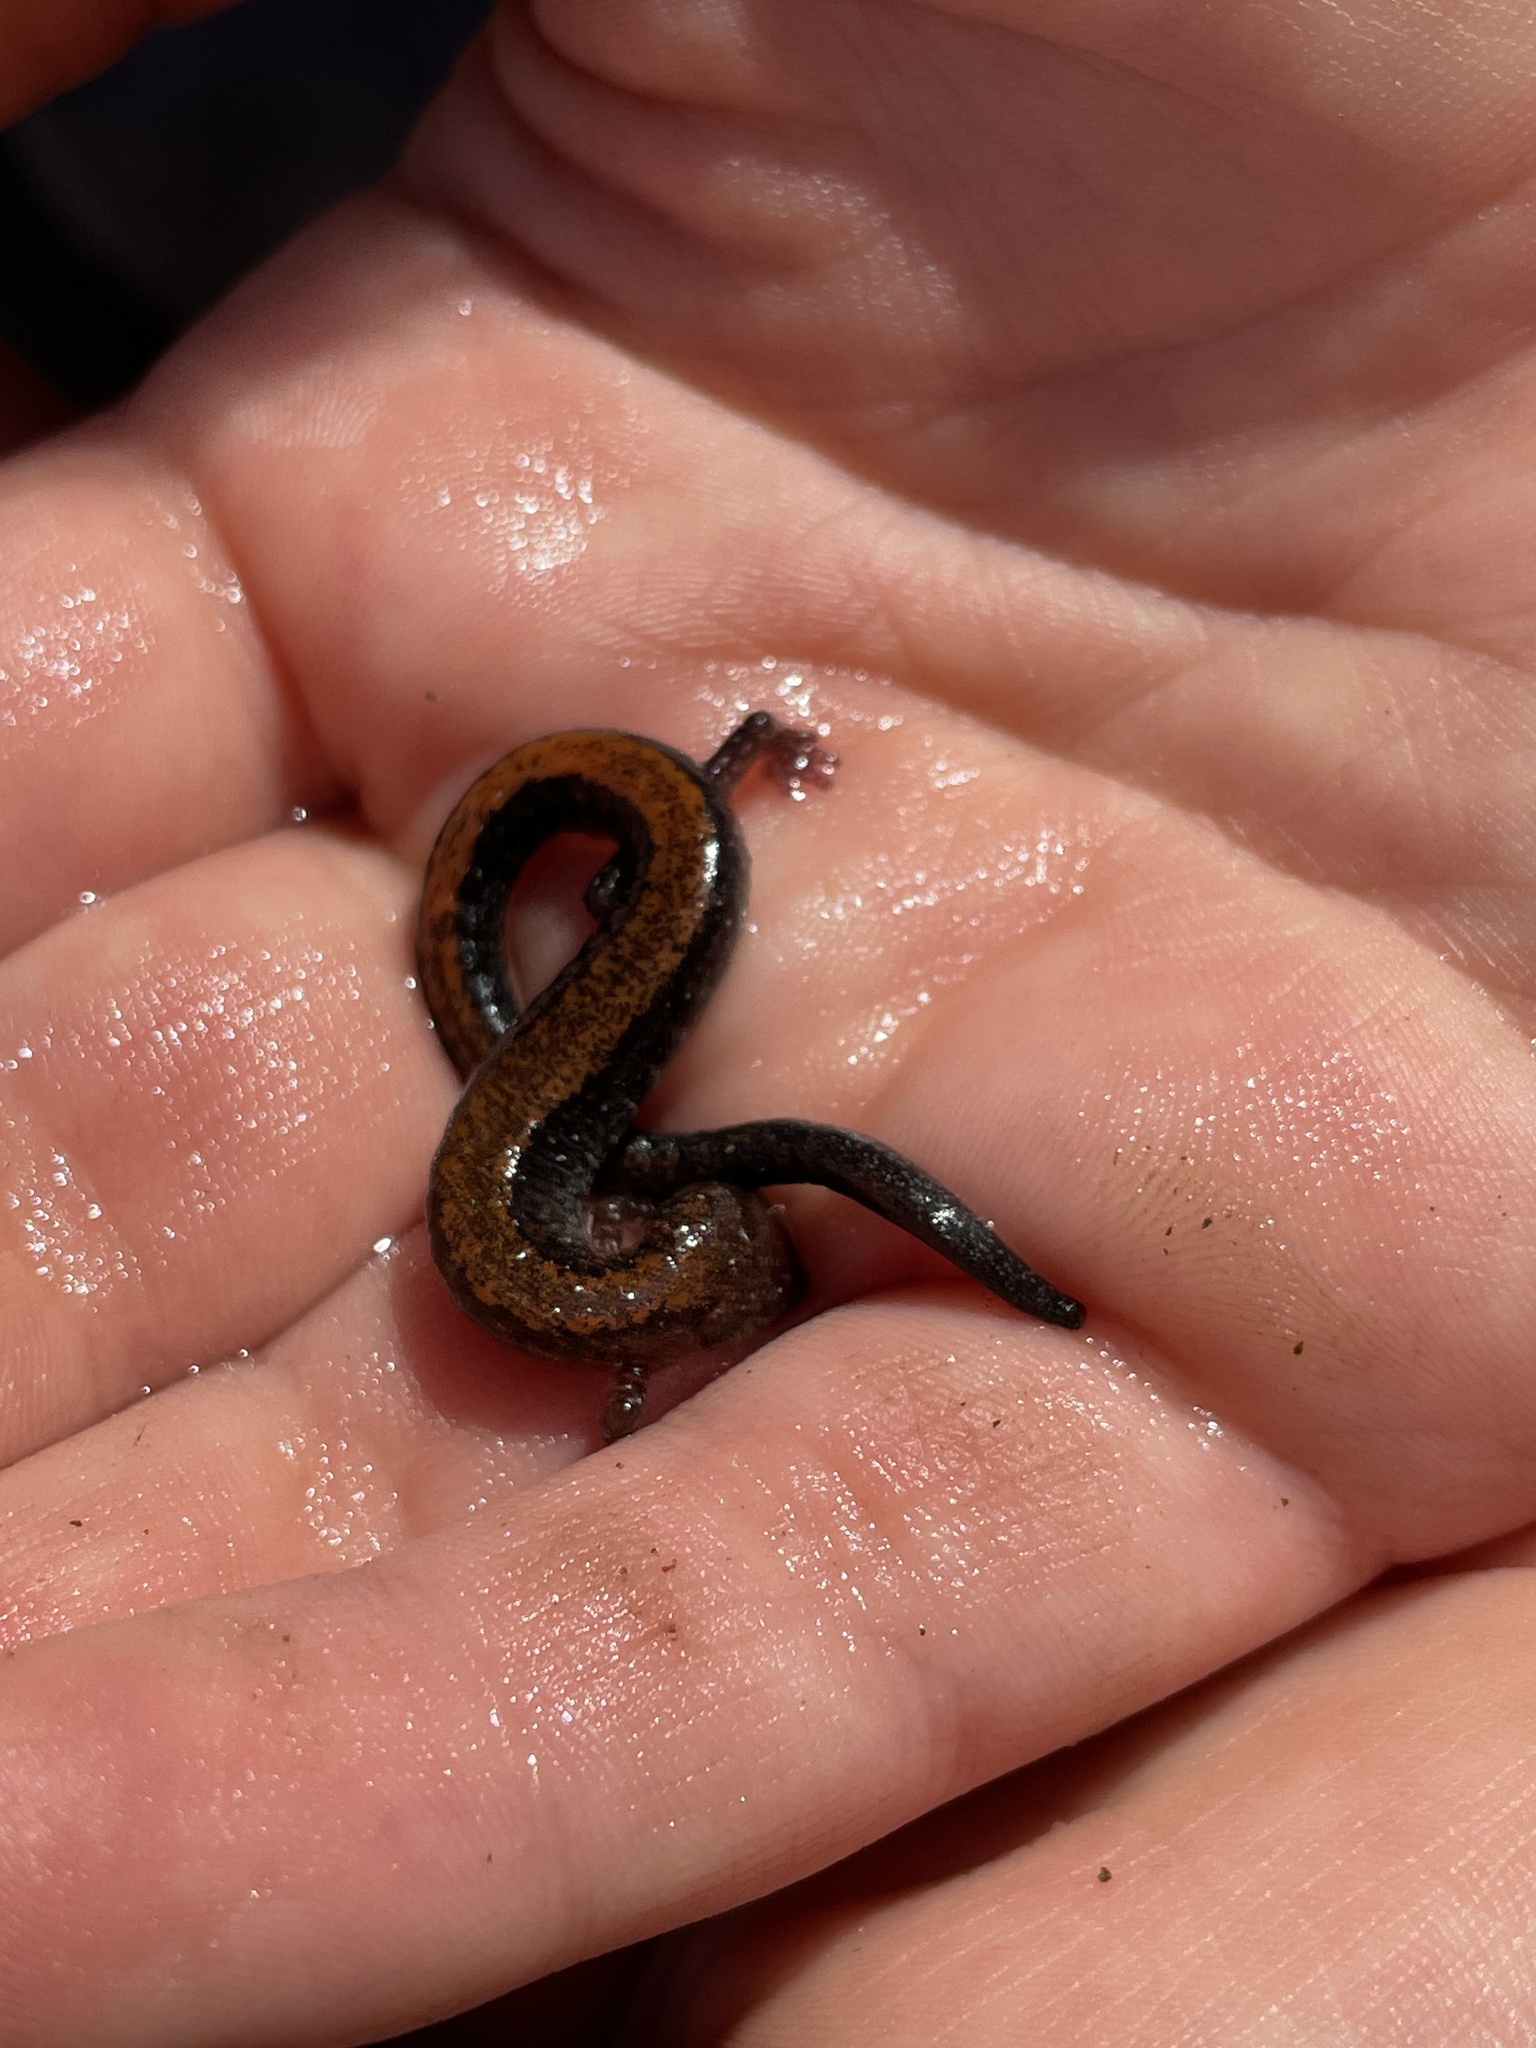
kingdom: Animalia
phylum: Chordata
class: Amphibia
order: Caudata
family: Plethodontidae
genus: Plethodon
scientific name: Plethodon cinereus
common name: Redback salamander
